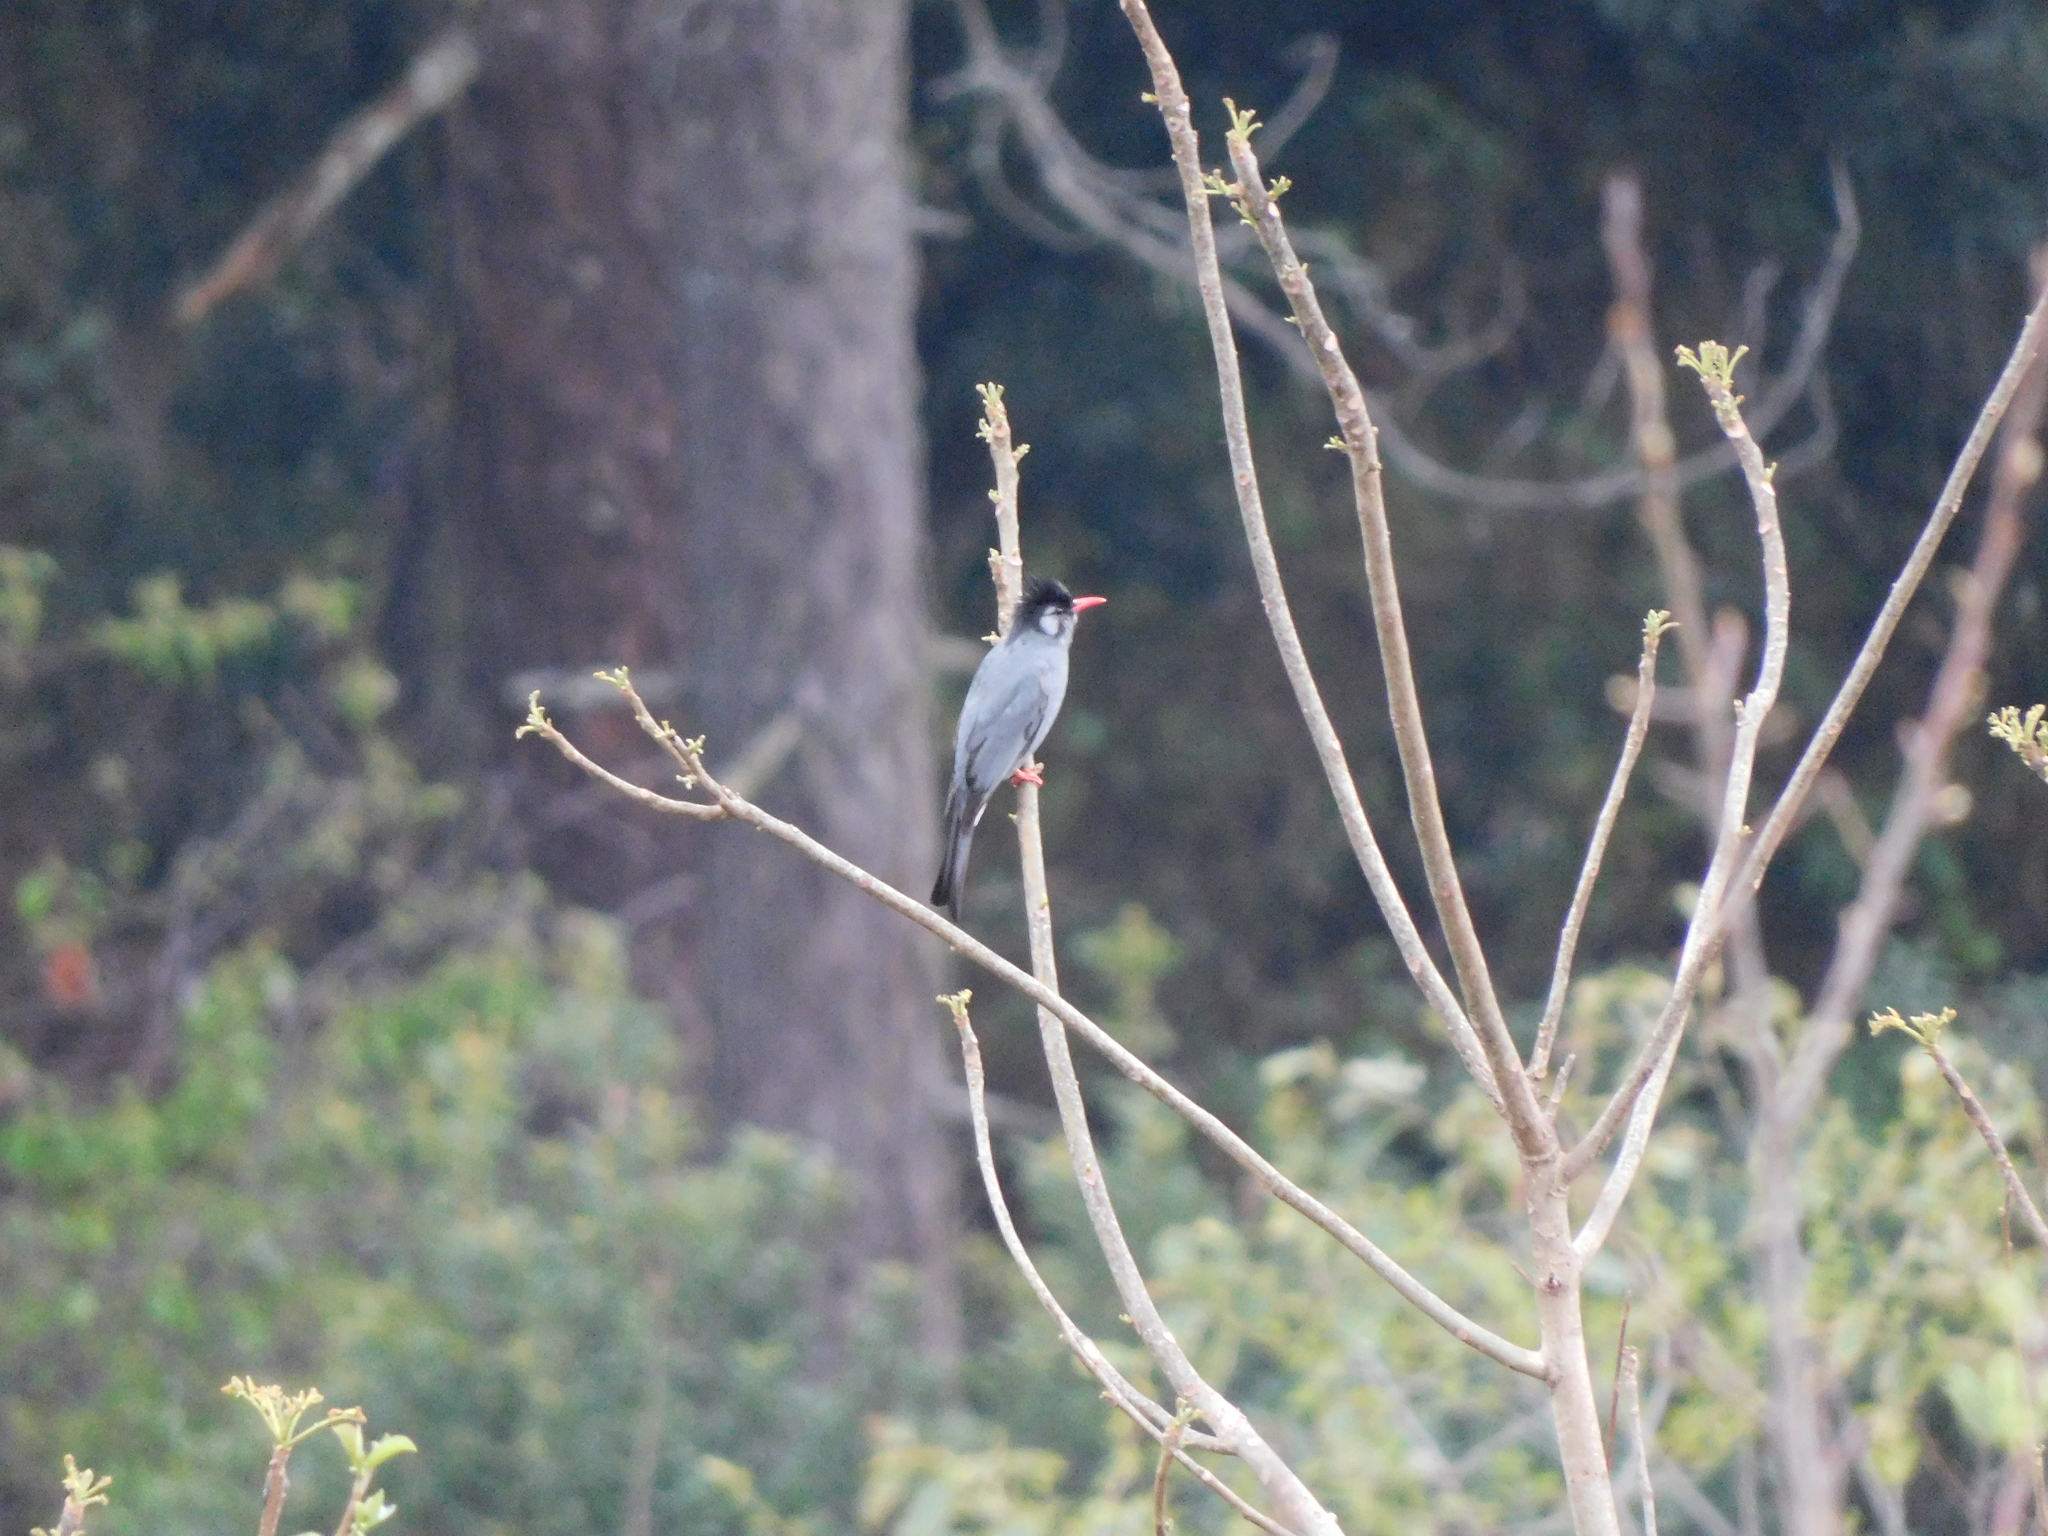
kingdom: Animalia
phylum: Chordata
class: Aves
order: Passeriformes
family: Pycnonotidae
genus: Hypsipetes
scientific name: Hypsipetes leucocephalus
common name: Black bulbul
